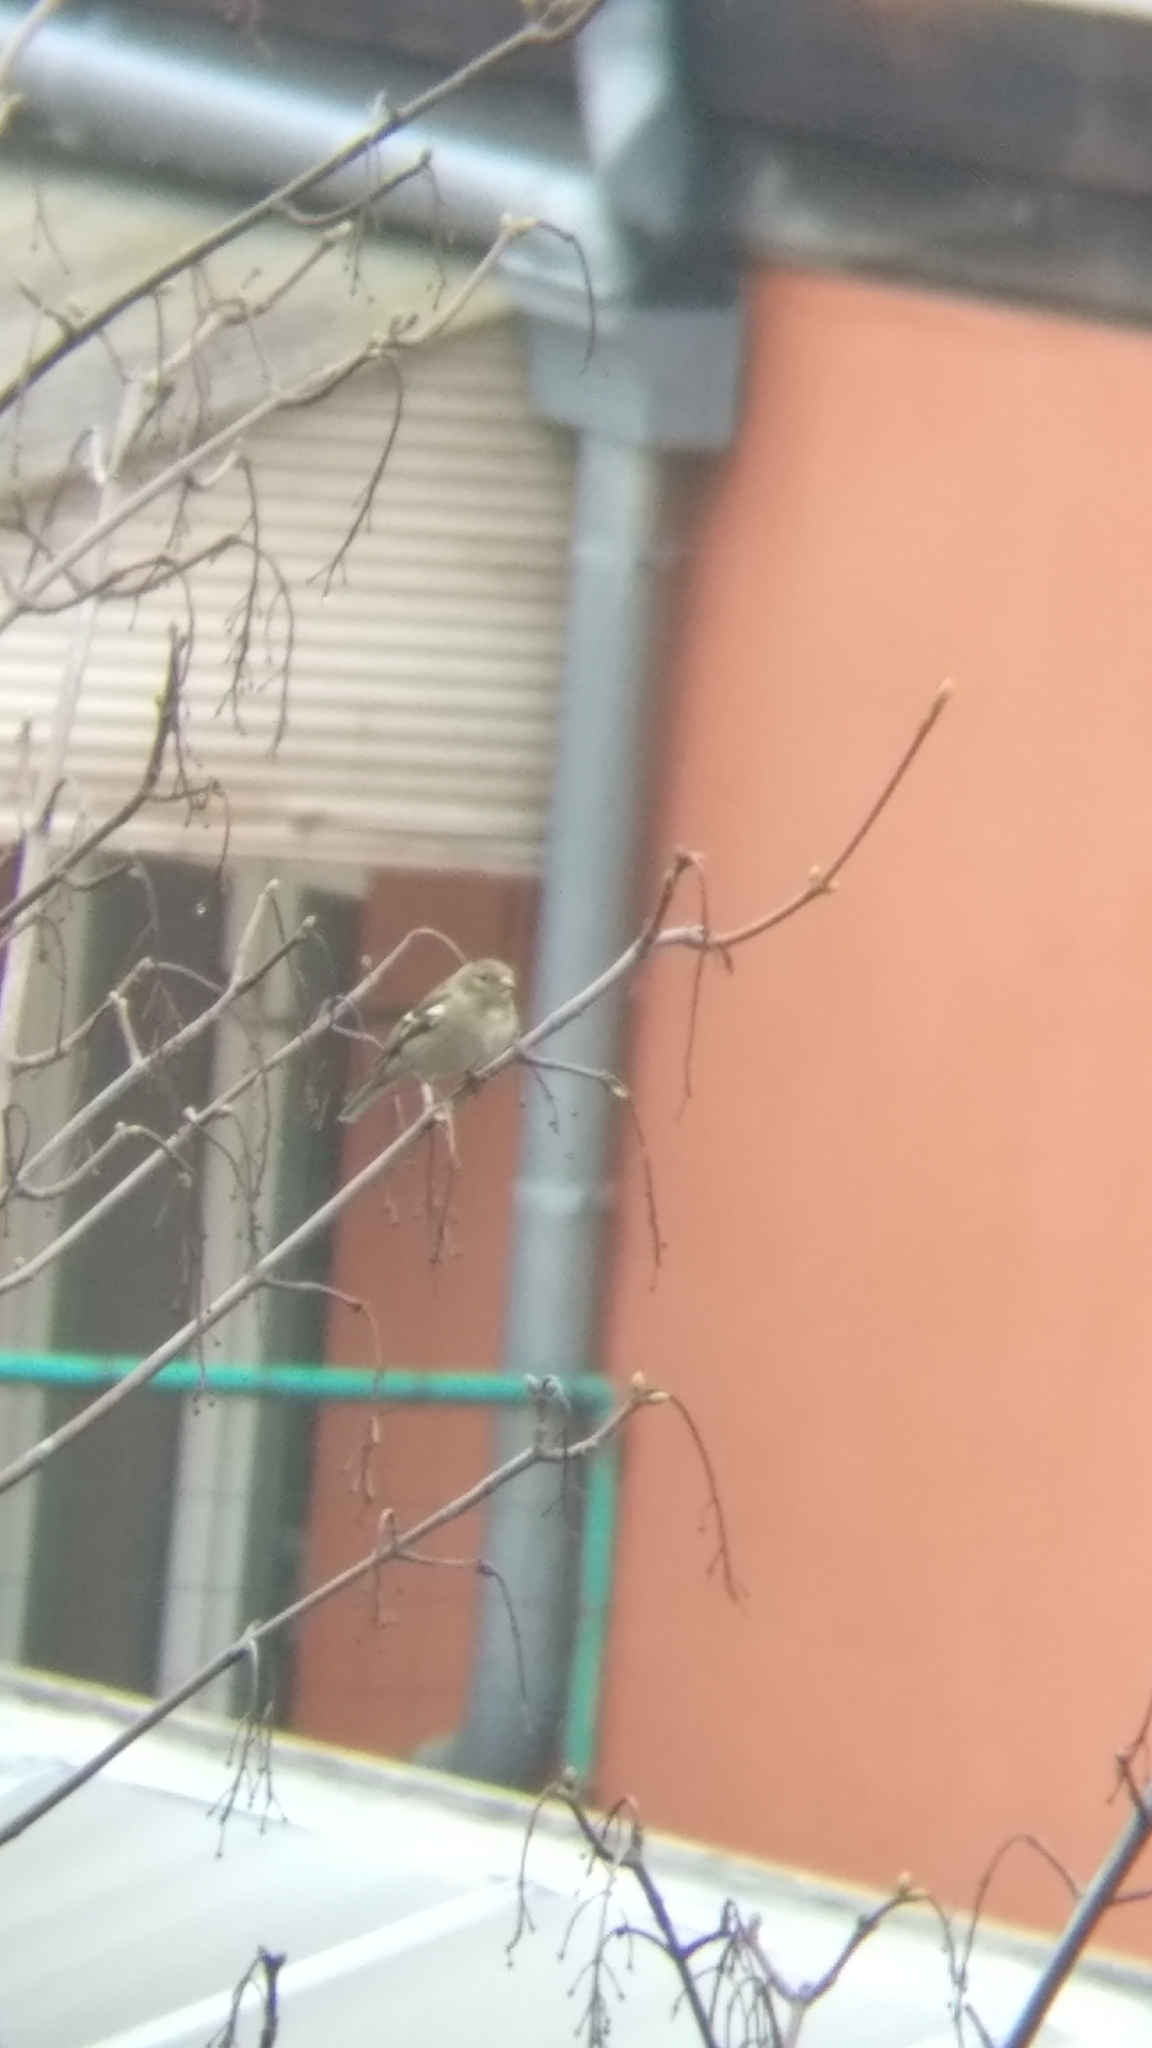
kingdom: Animalia
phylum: Chordata
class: Aves
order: Passeriformes
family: Fringillidae
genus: Fringilla
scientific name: Fringilla coelebs
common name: Common chaffinch
